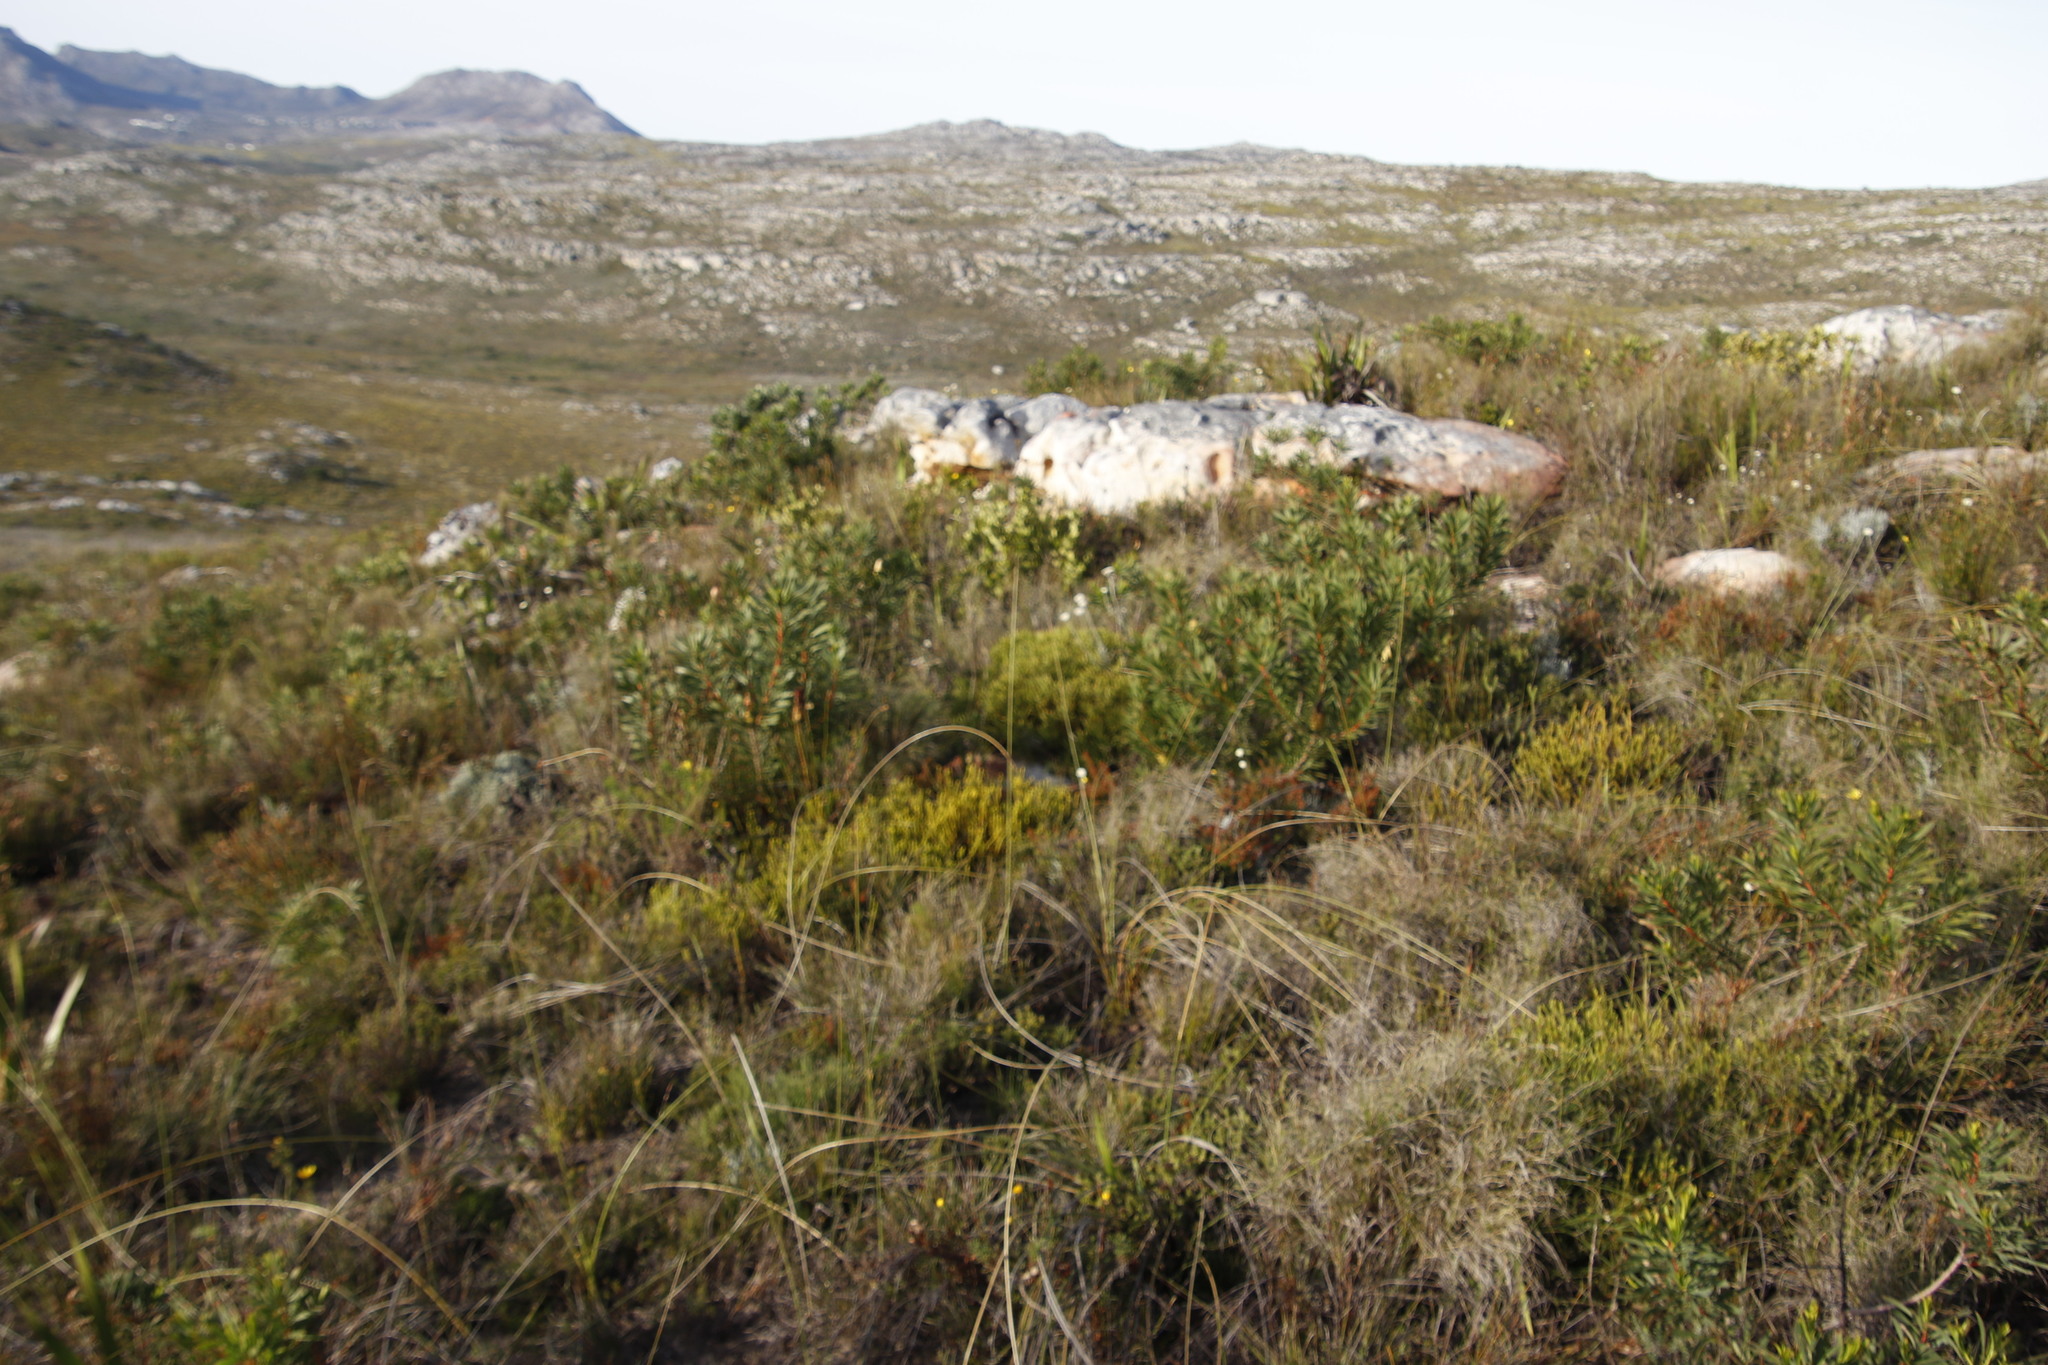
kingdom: Plantae
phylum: Tracheophyta
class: Magnoliopsida
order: Malvales
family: Thymelaeaceae
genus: Lachnaea
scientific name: Lachnaea grandiflora
